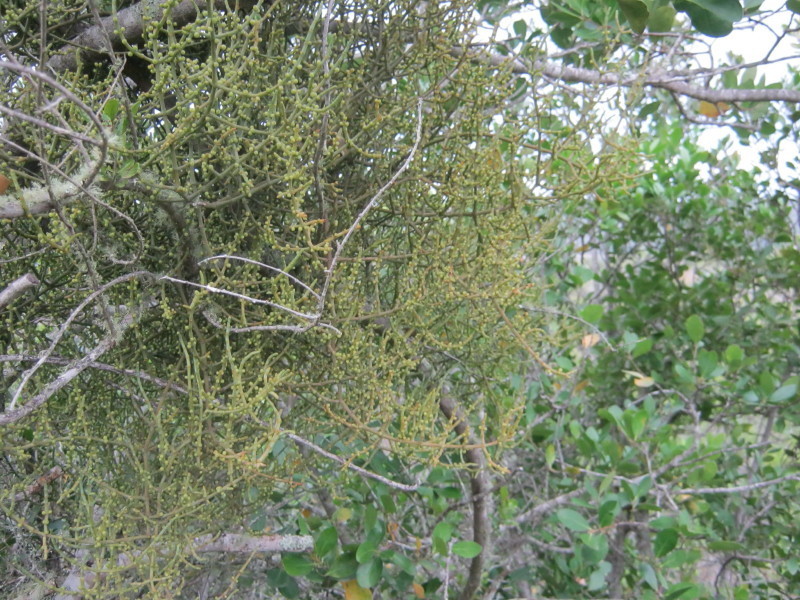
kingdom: Plantae
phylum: Tracheophyta
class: Magnoliopsida
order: Santalales
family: Viscaceae
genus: Viscum
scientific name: Viscum capense
